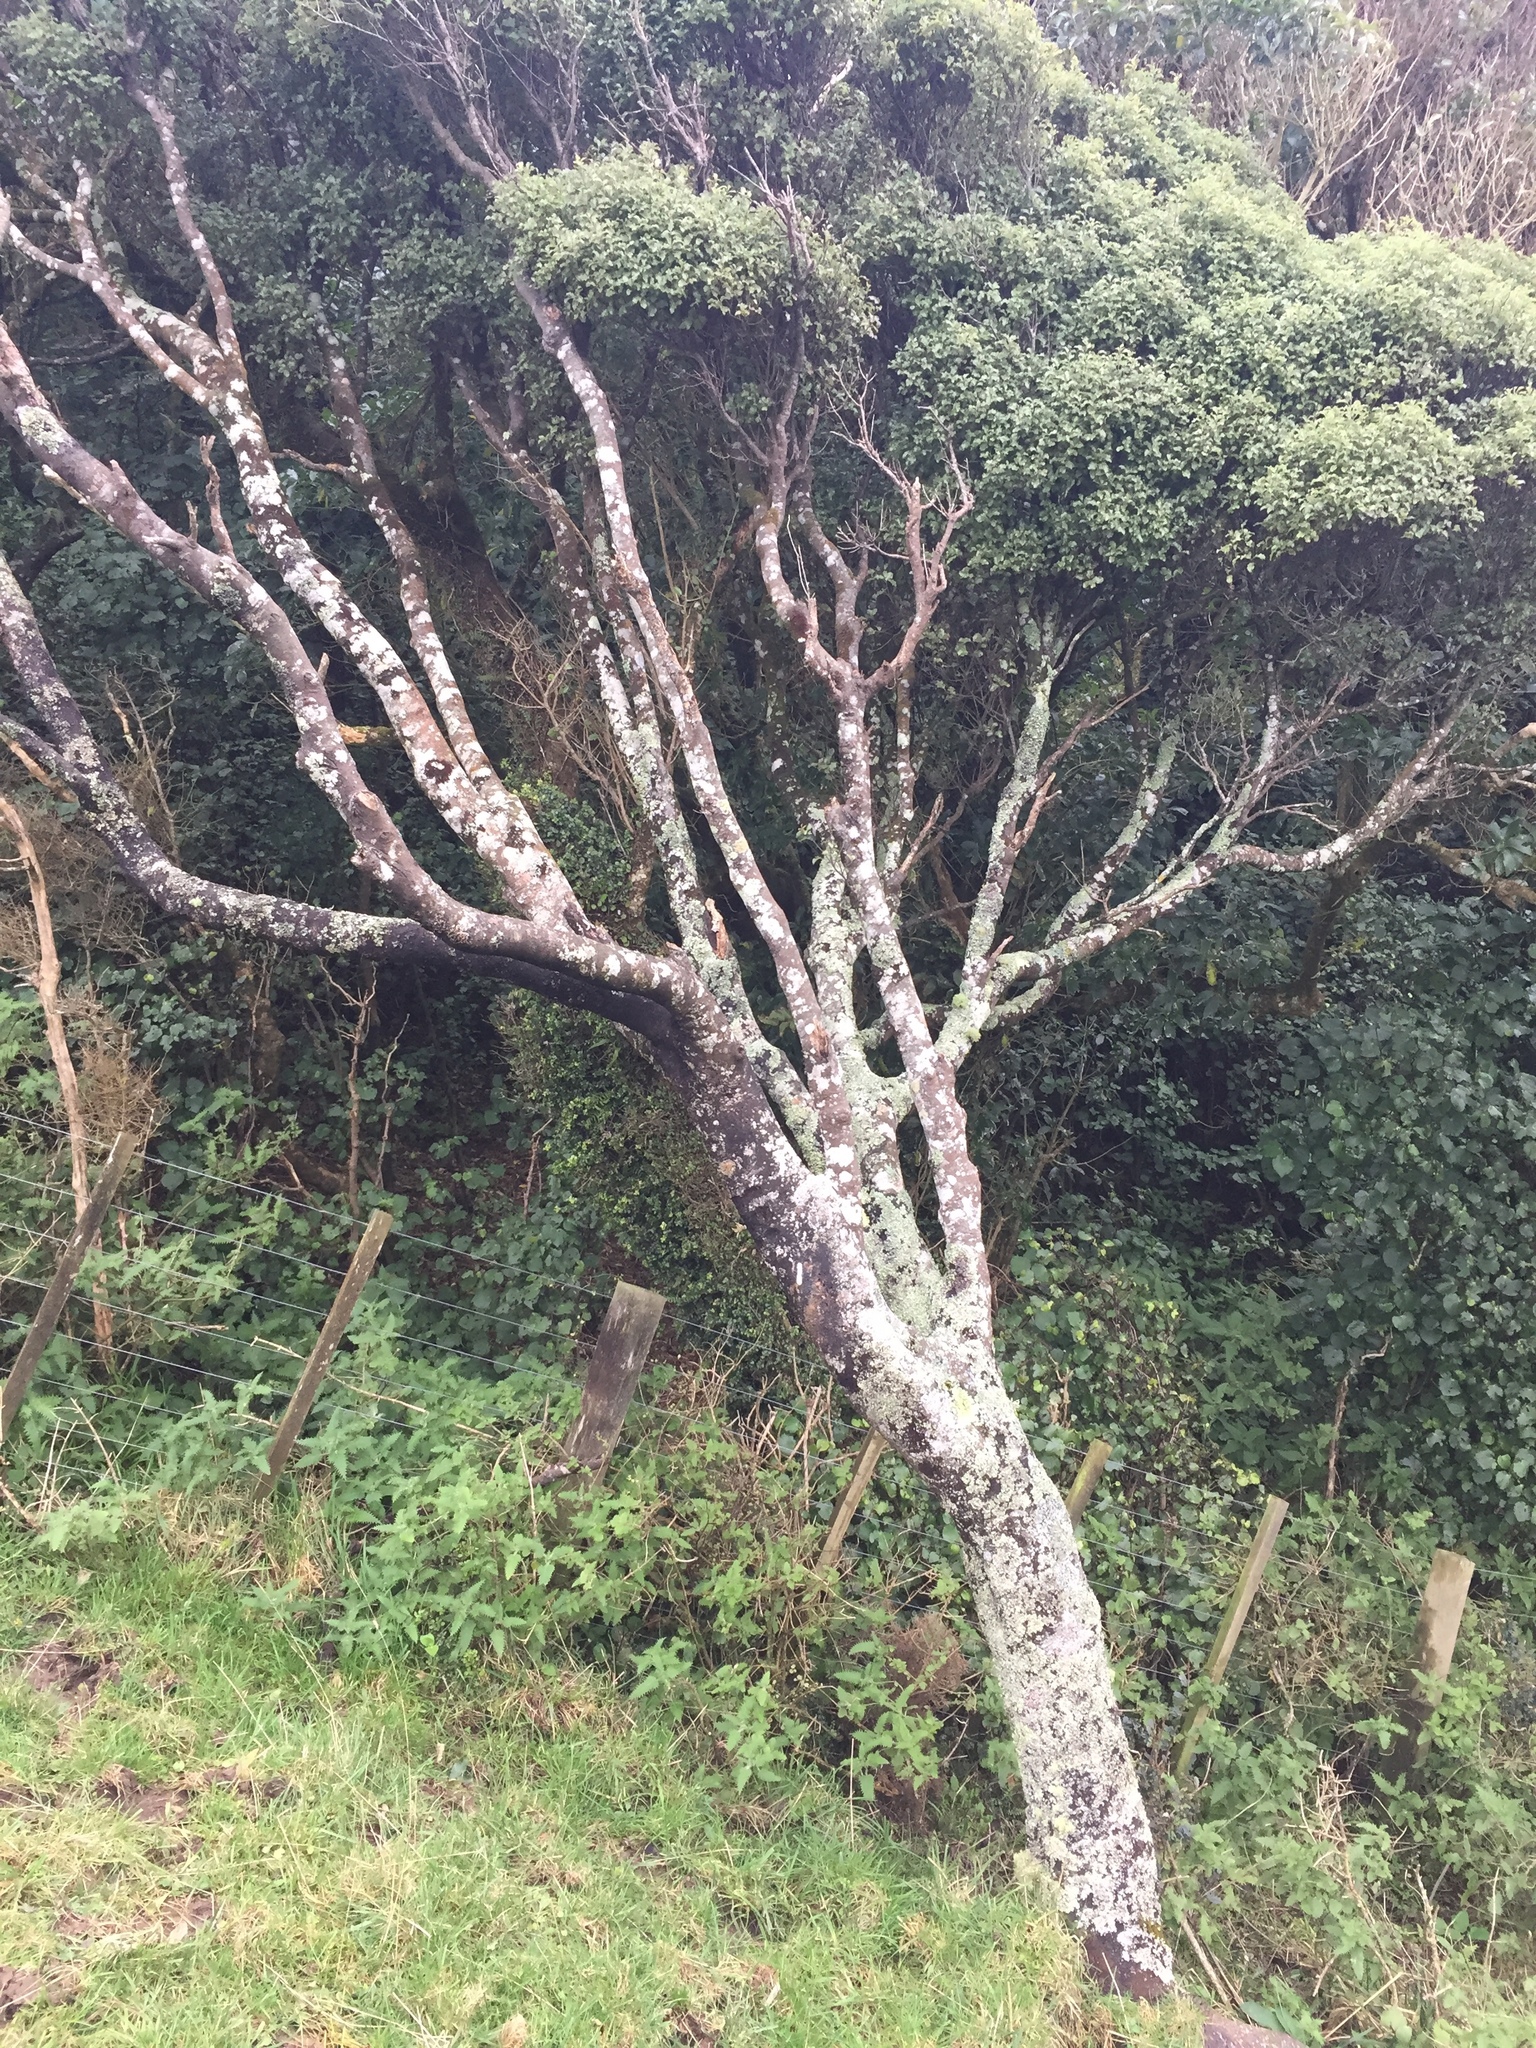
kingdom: Plantae
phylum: Tracheophyta
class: Magnoliopsida
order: Apiales
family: Pittosporaceae
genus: Pittosporum
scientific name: Pittosporum tenuifolium
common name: Kohuhu
